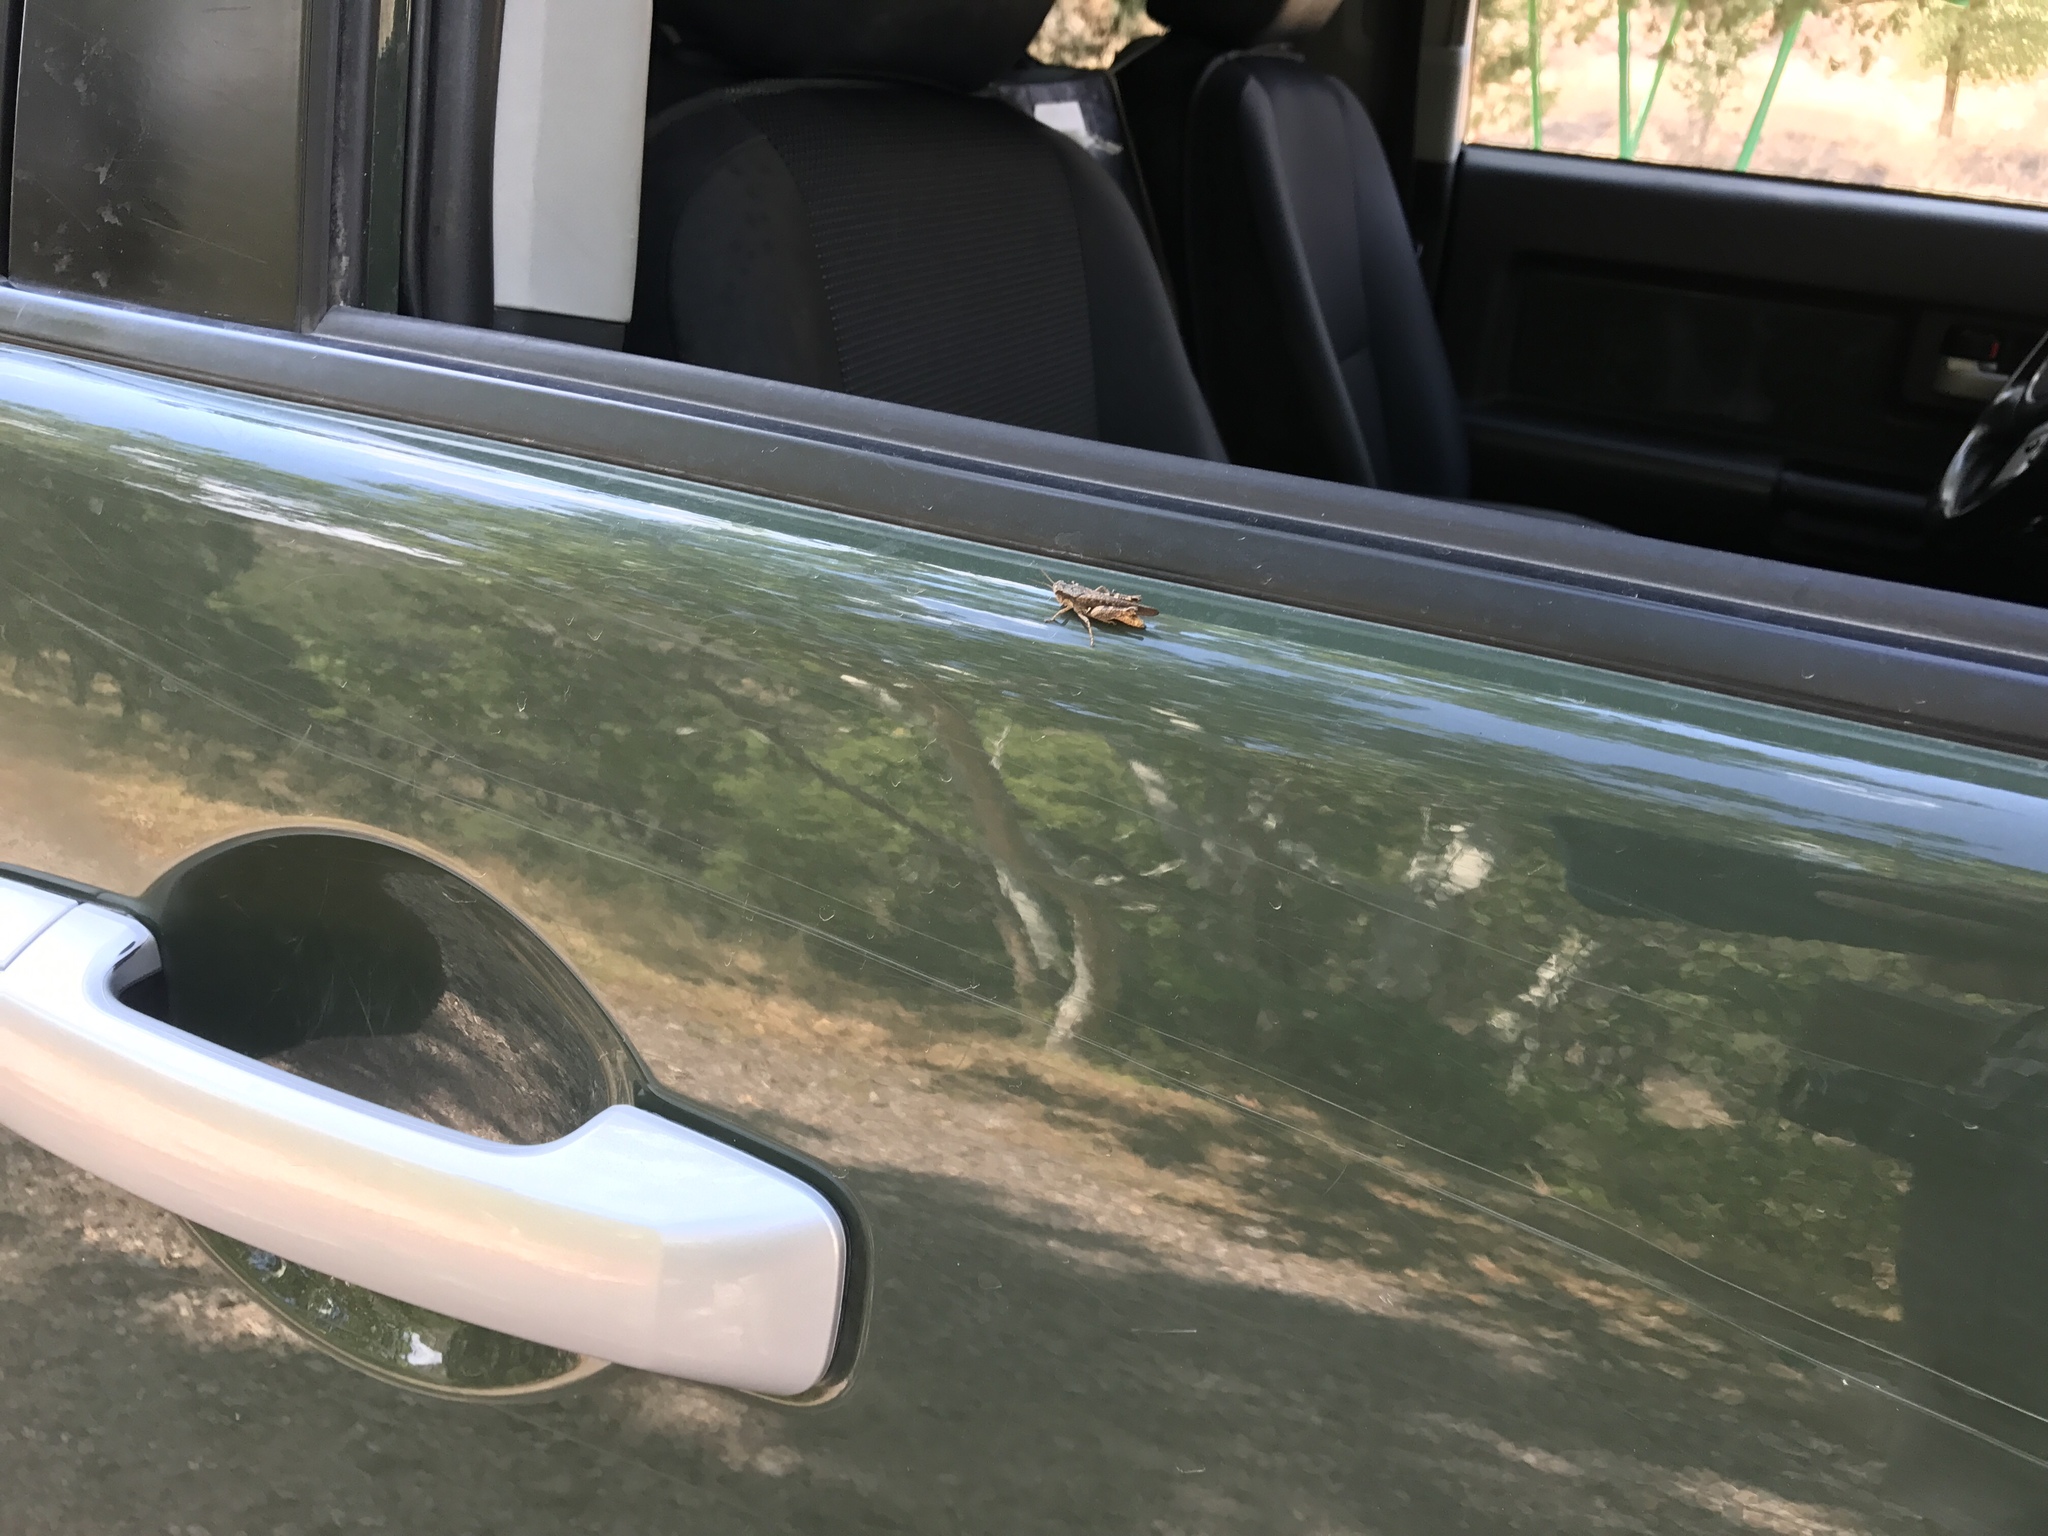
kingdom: Animalia
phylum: Arthropoda
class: Insecta
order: Orthoptera
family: Acrididae
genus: Aidemona
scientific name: Aidemona azteca
